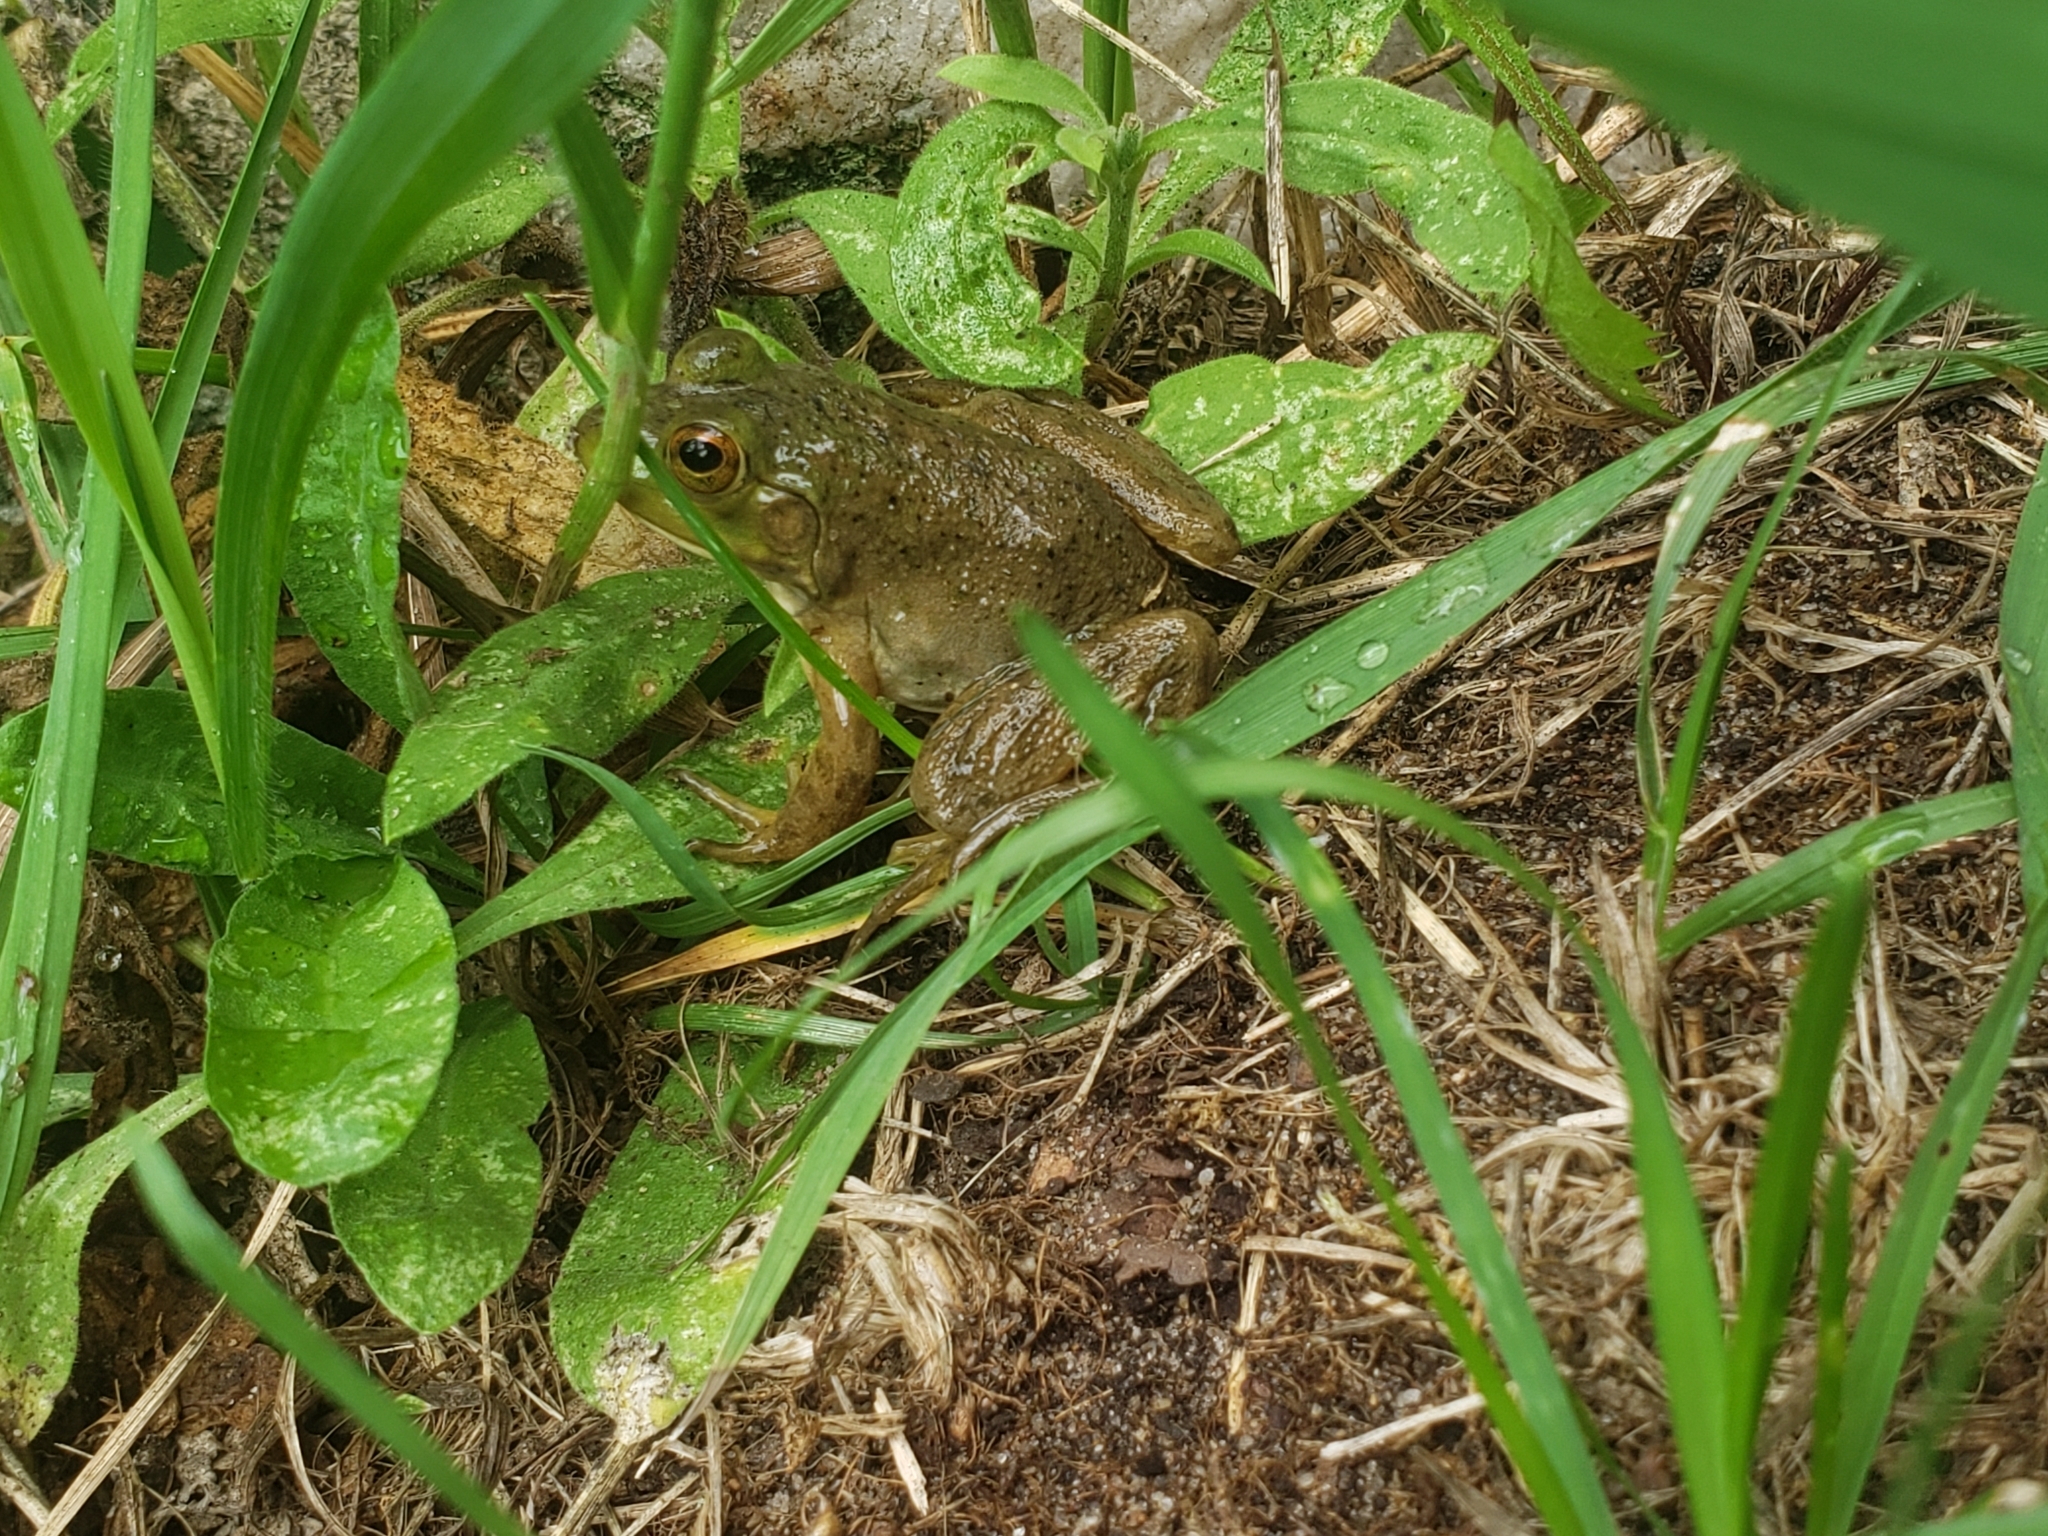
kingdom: Animalia
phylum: Chordata
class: Amphibia
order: Anura
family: Ranidae
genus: Lithobates
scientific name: Lithobates catesbeianus
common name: American bullfrog
